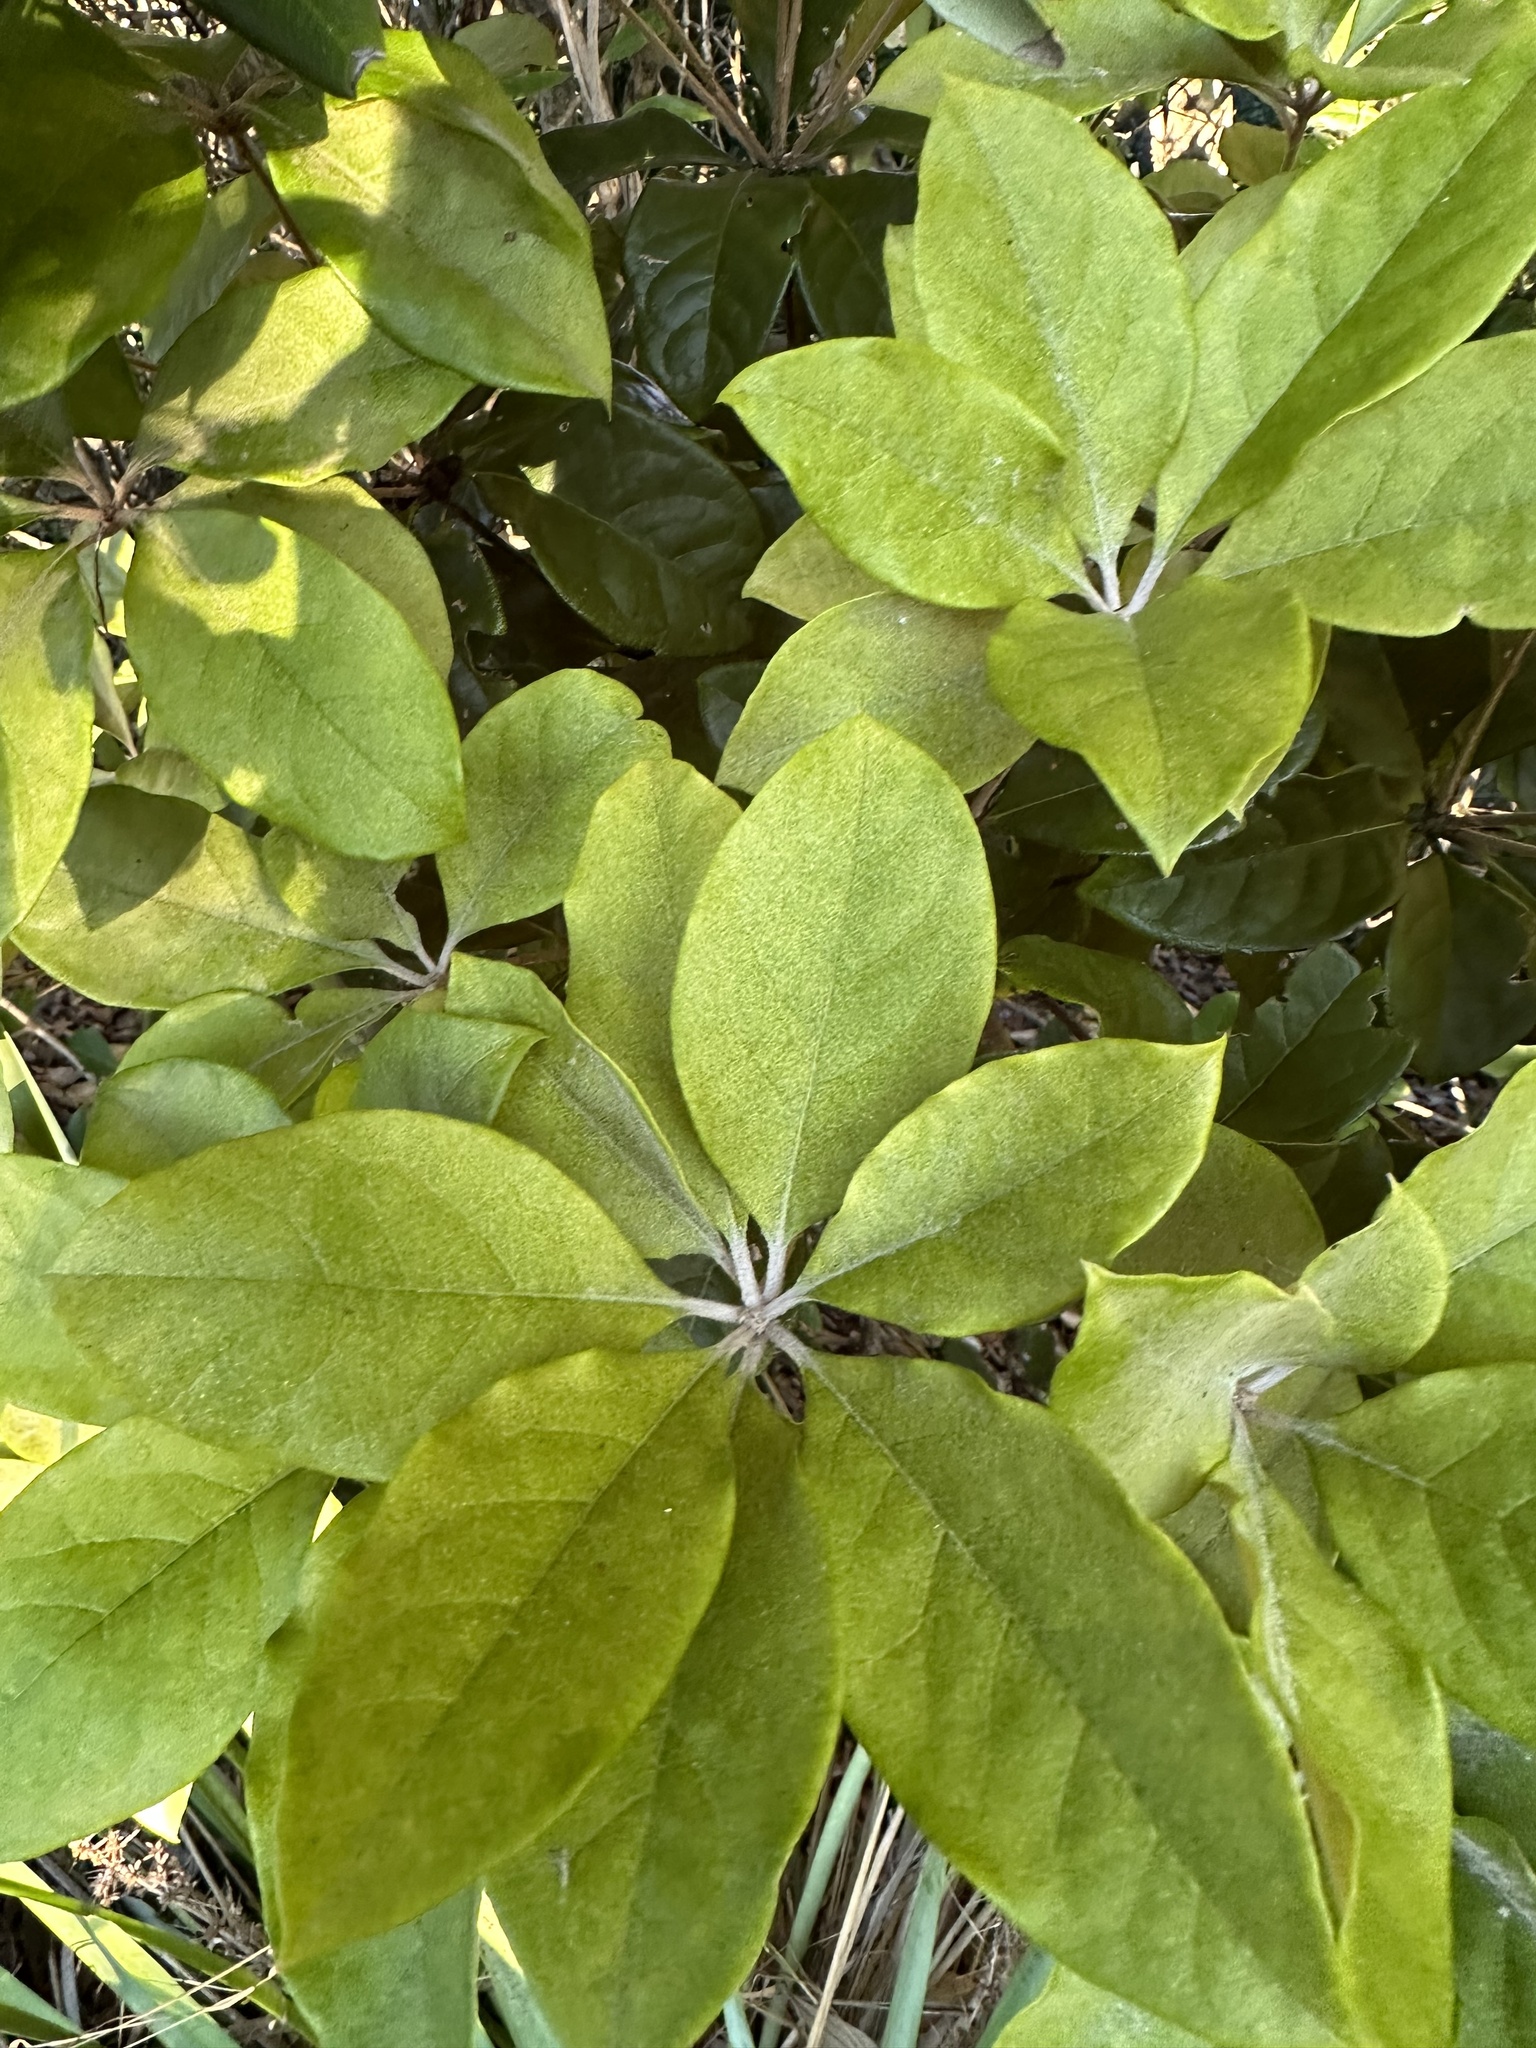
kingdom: Plantae
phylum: Tracheophyta
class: Magnoliopsida
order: Apiales
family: Pittosporaceae
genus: Pittosporum
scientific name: Pittosporum revolutum
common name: Brisbane-laurel
